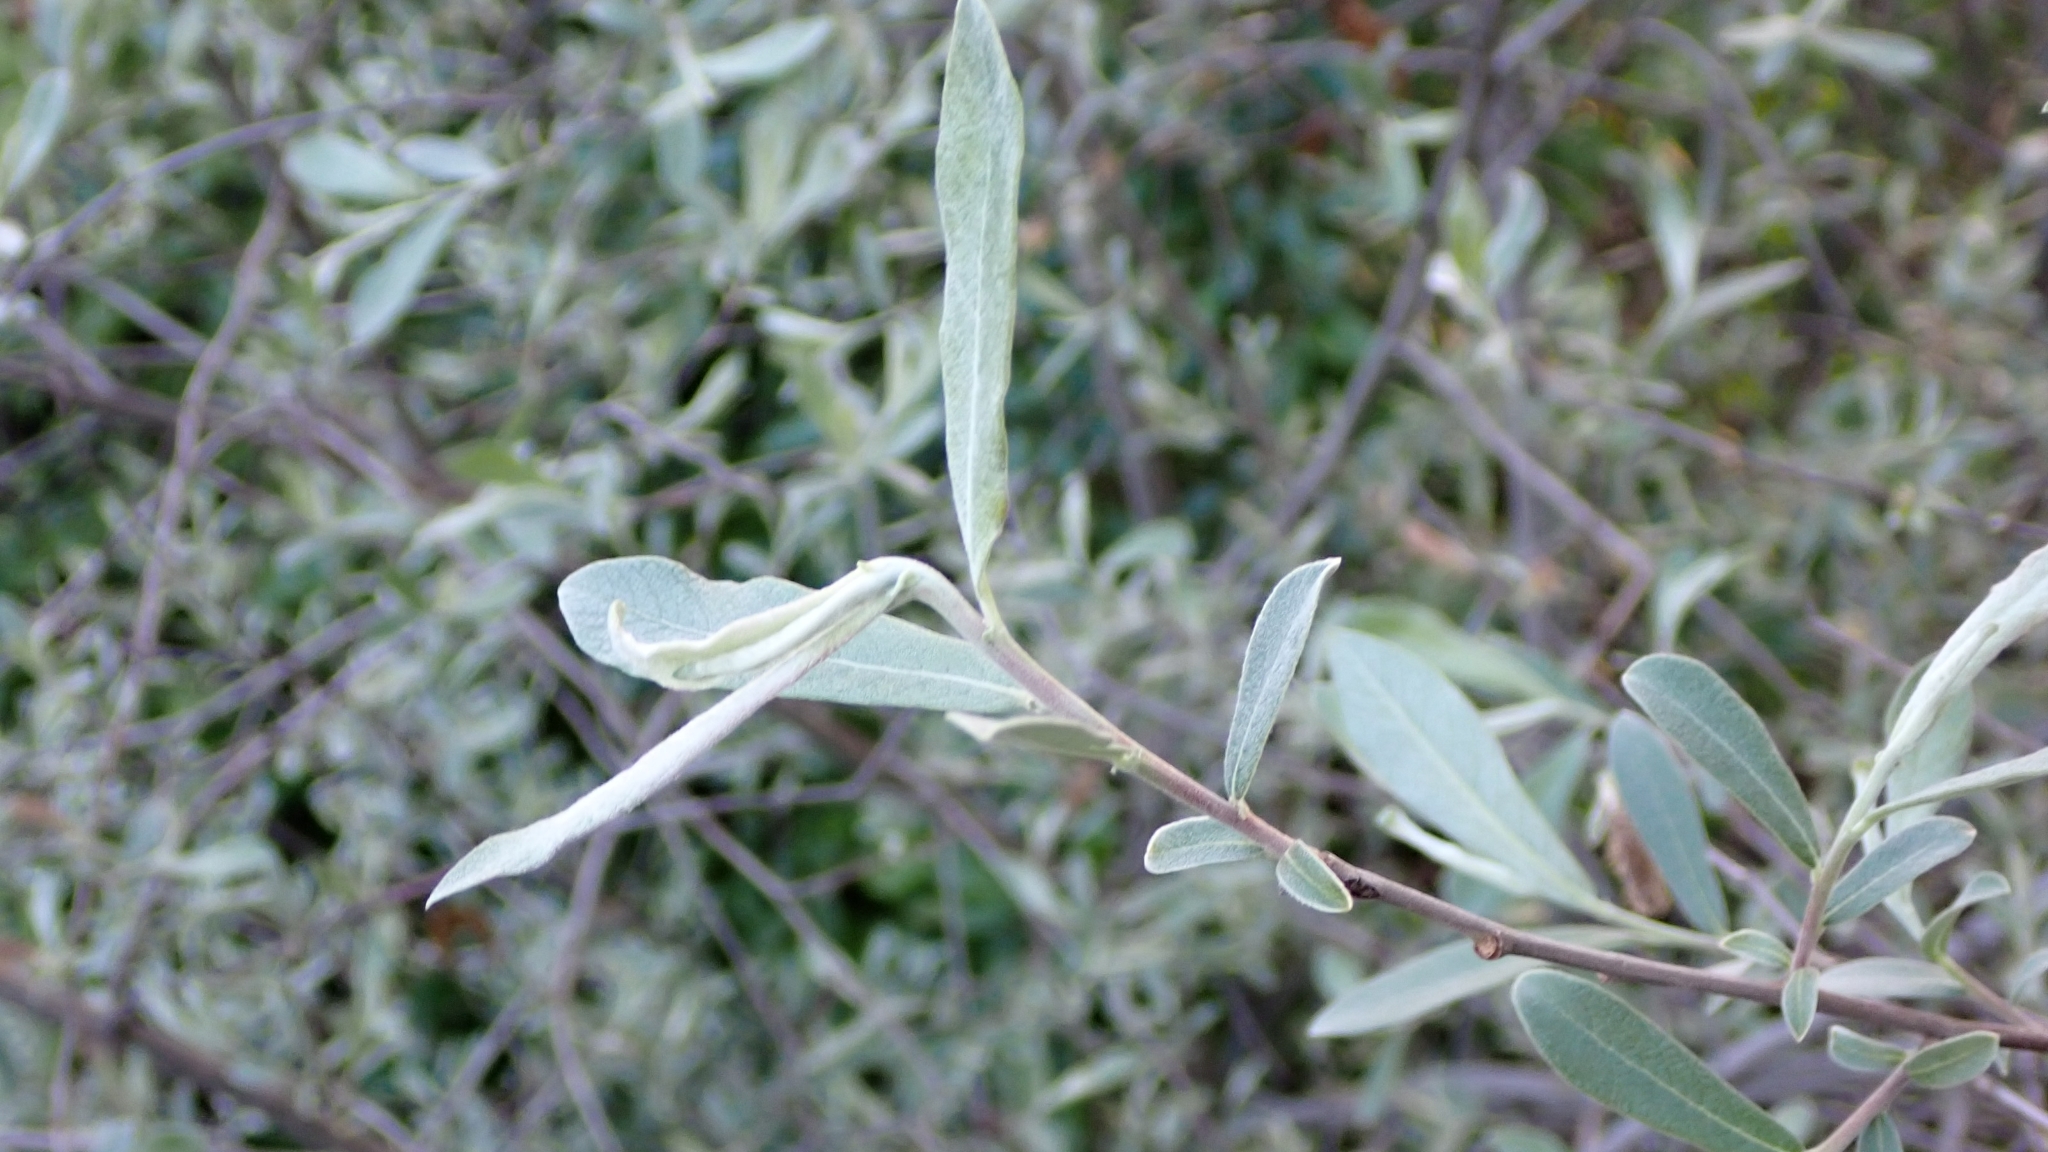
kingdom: Plantae
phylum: Tracheophyta
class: Magnoliopsida
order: Malpighiales
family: Salicaceae
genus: Salix
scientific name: Salix salviifolia
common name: Salvia-leaf willow
